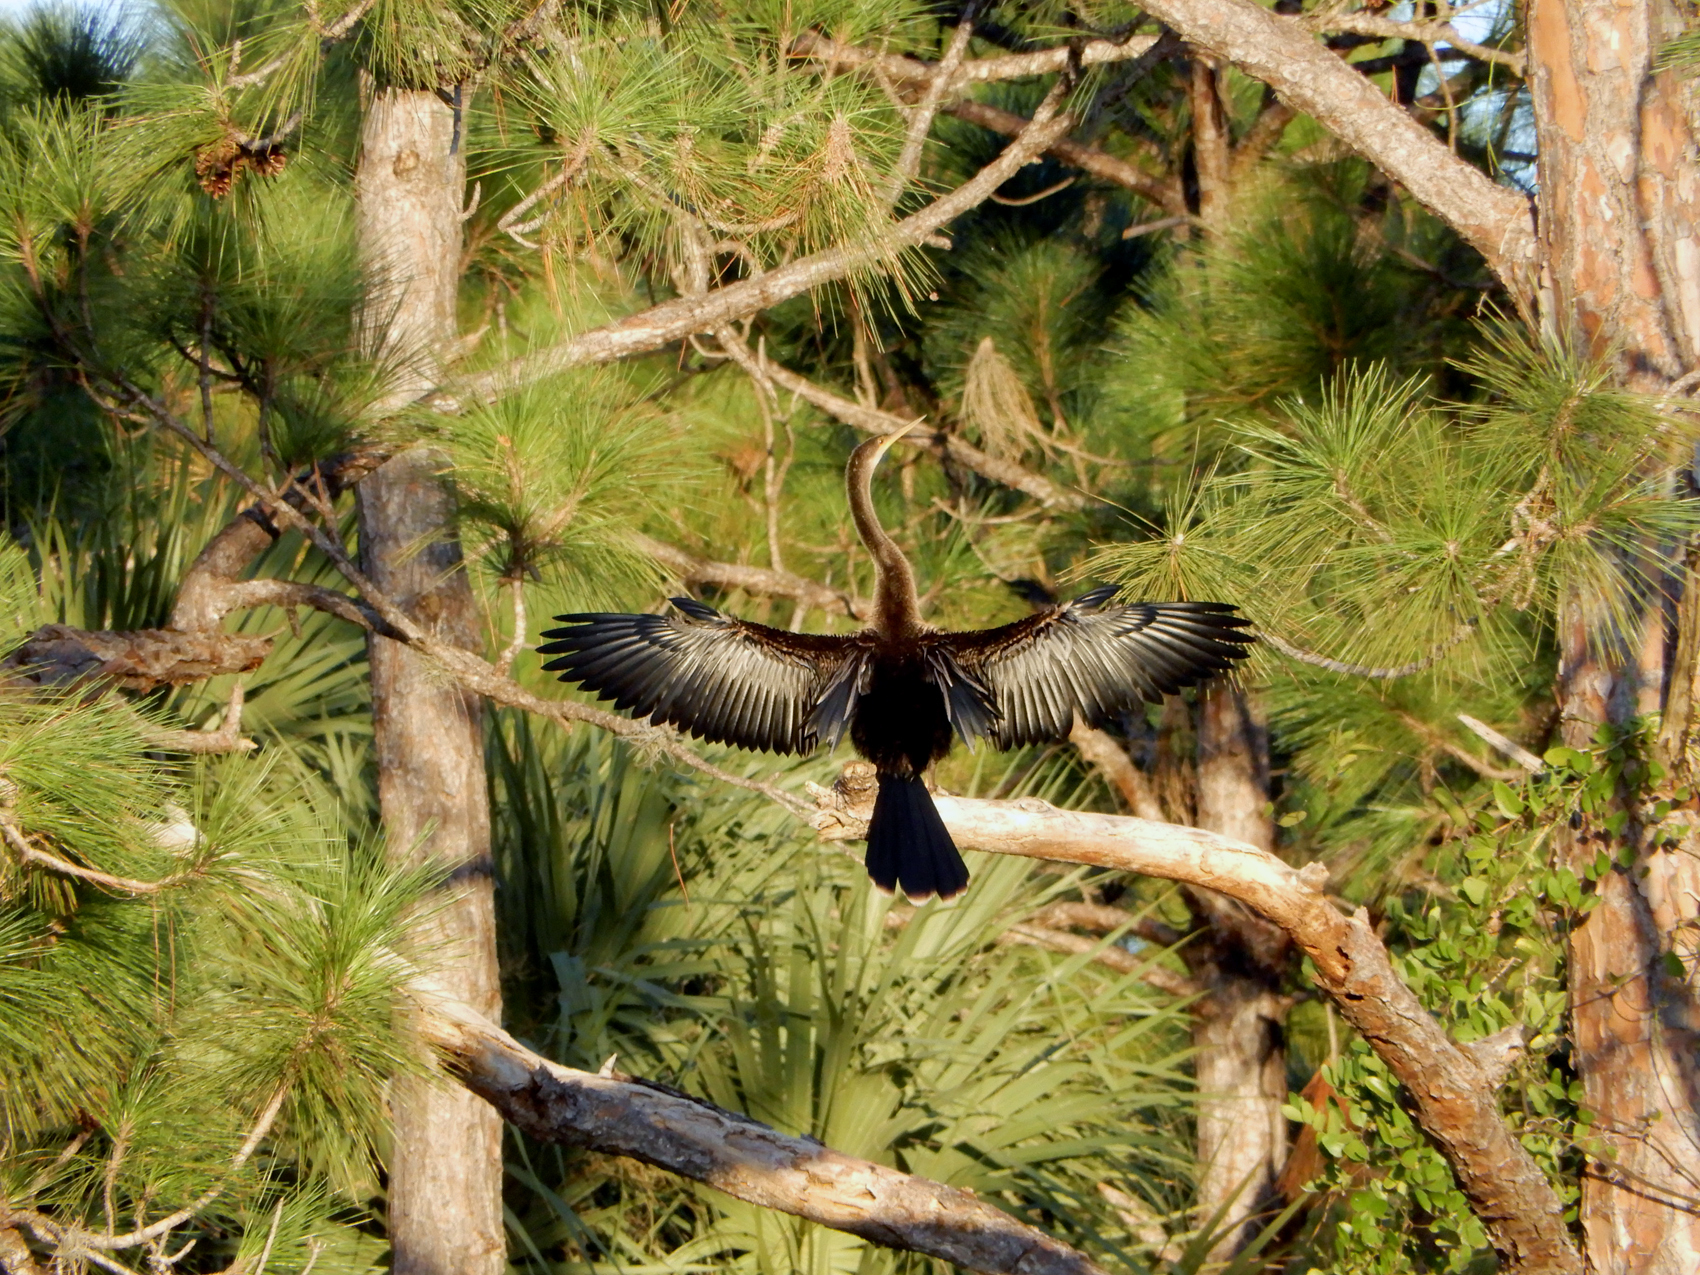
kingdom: Animalia
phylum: Chordata
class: Aves
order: Suliformes
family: Anhingidae
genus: Anhinga
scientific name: Anhinga anhinga
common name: Anhinga
